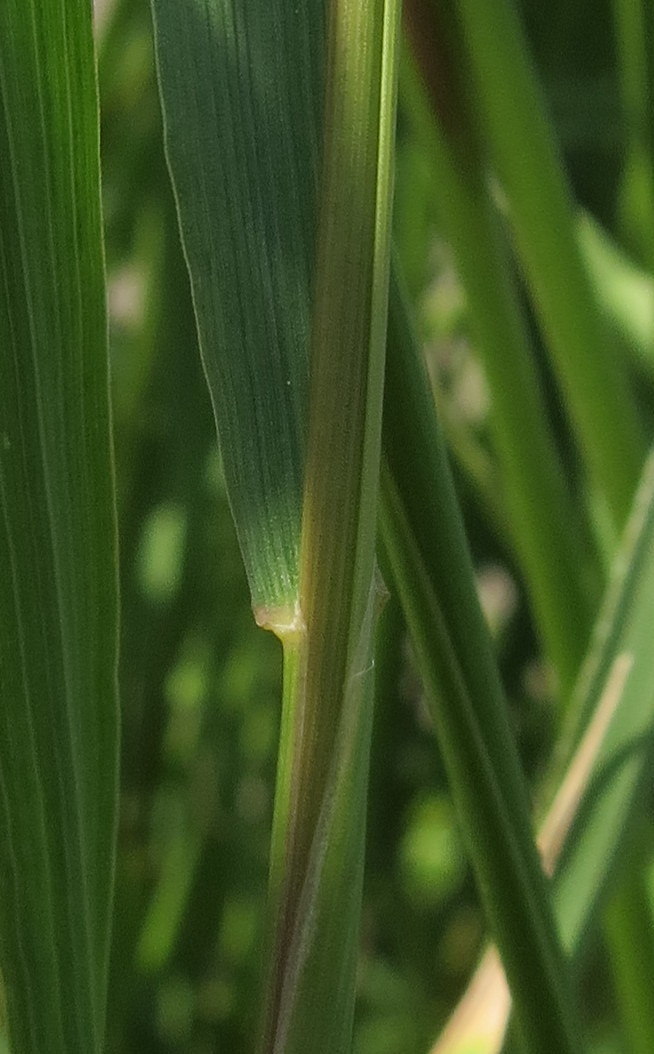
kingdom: Plantae
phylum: Tracheophyta
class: Liliopsida
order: Poales
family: Poaceae
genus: Hordeum
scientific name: Hordeum jubatum
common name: Foxtail barley
